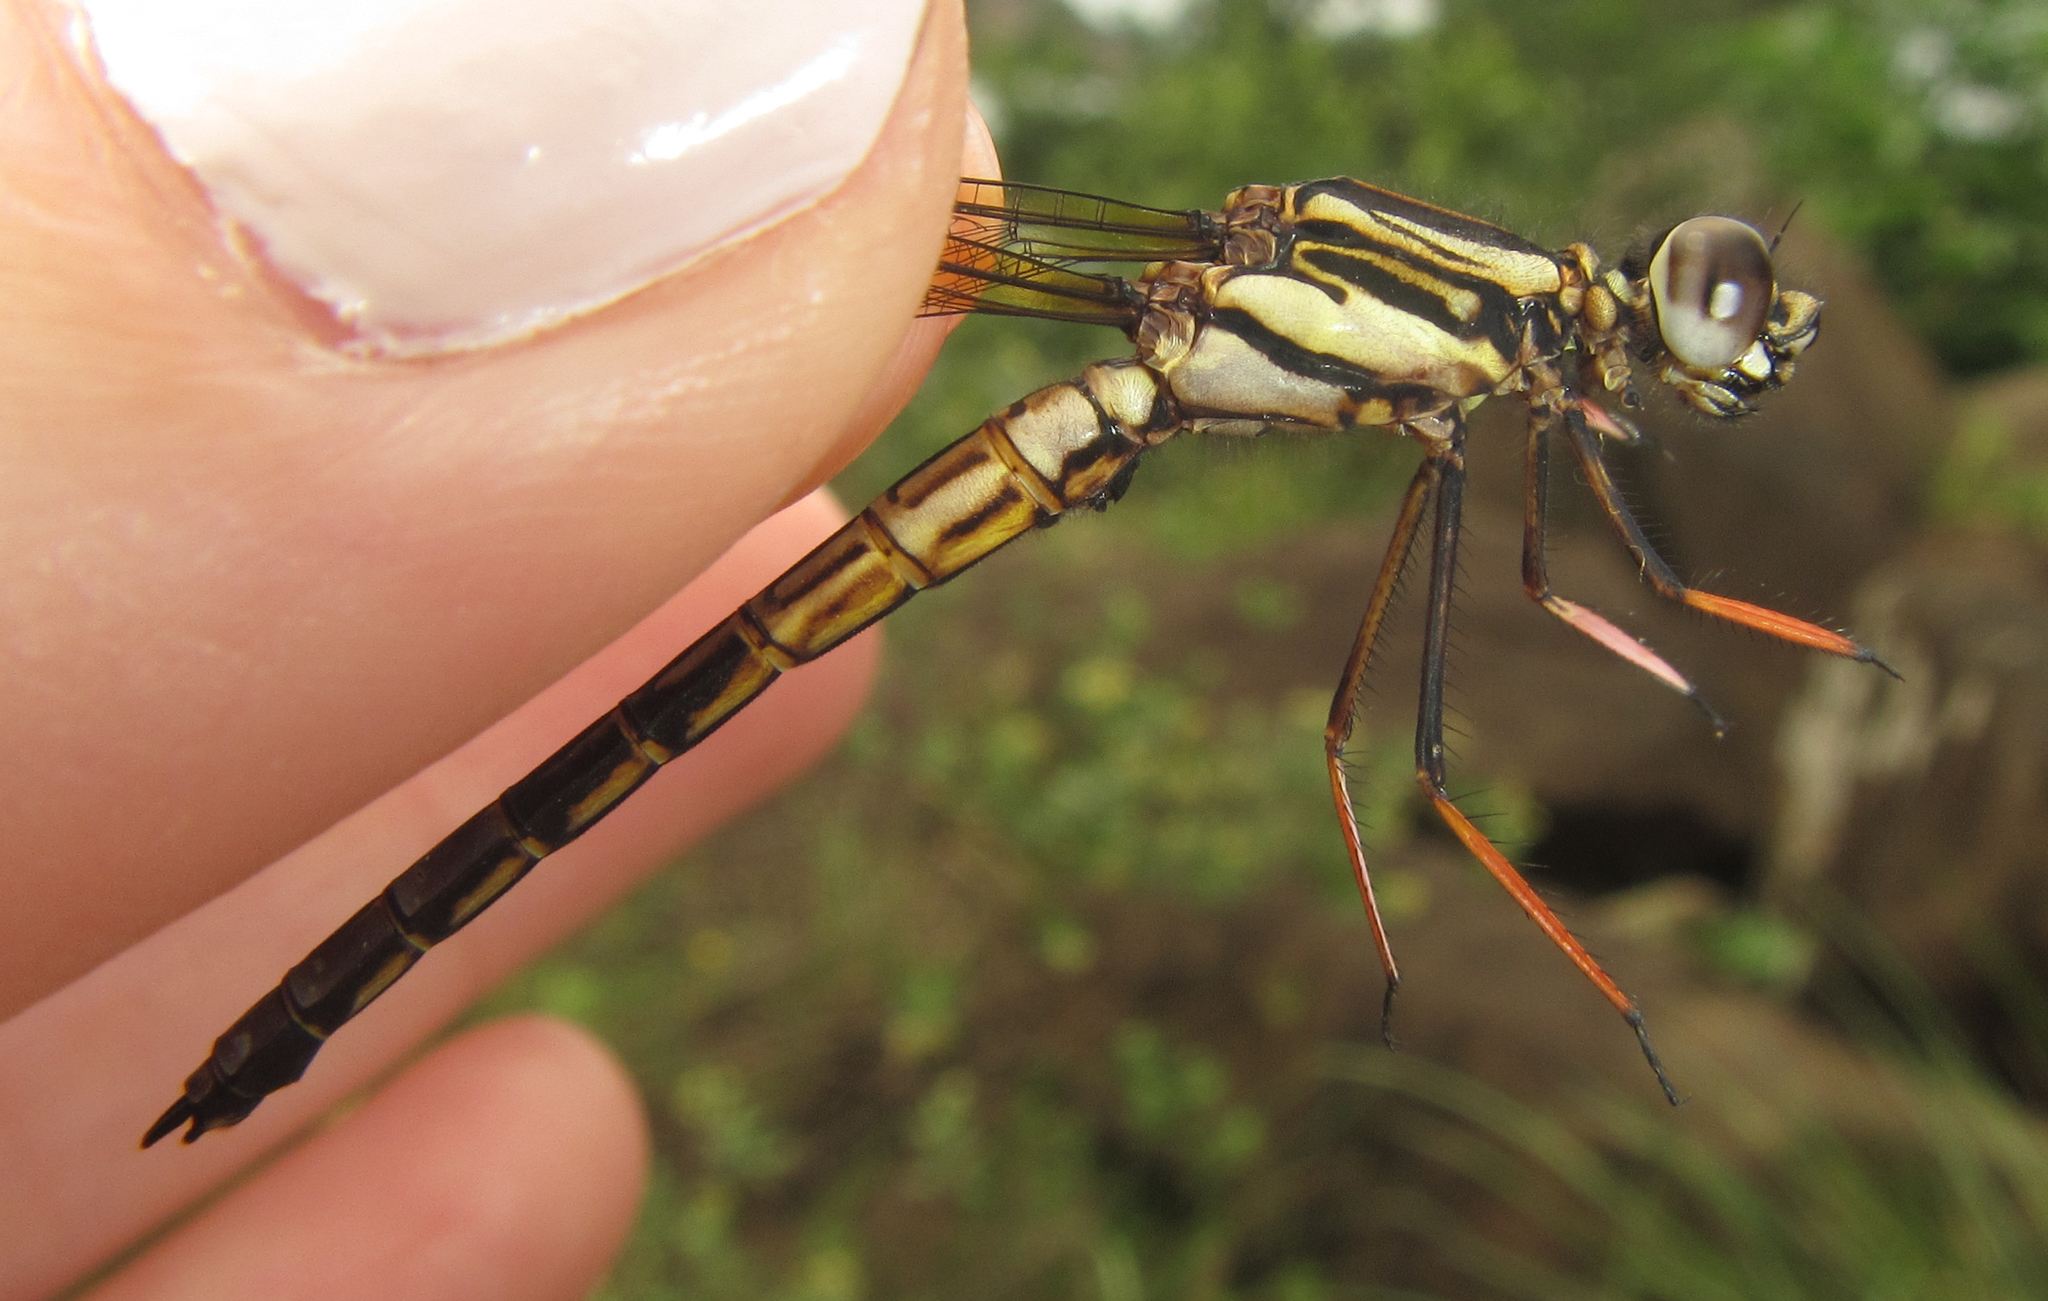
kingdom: Animalia
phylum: Arthropoda
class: Insecta
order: Odonata
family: Chlorocyphidae
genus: Platycypha
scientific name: Platycypha fitzsimonsi
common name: Boulder jewel
